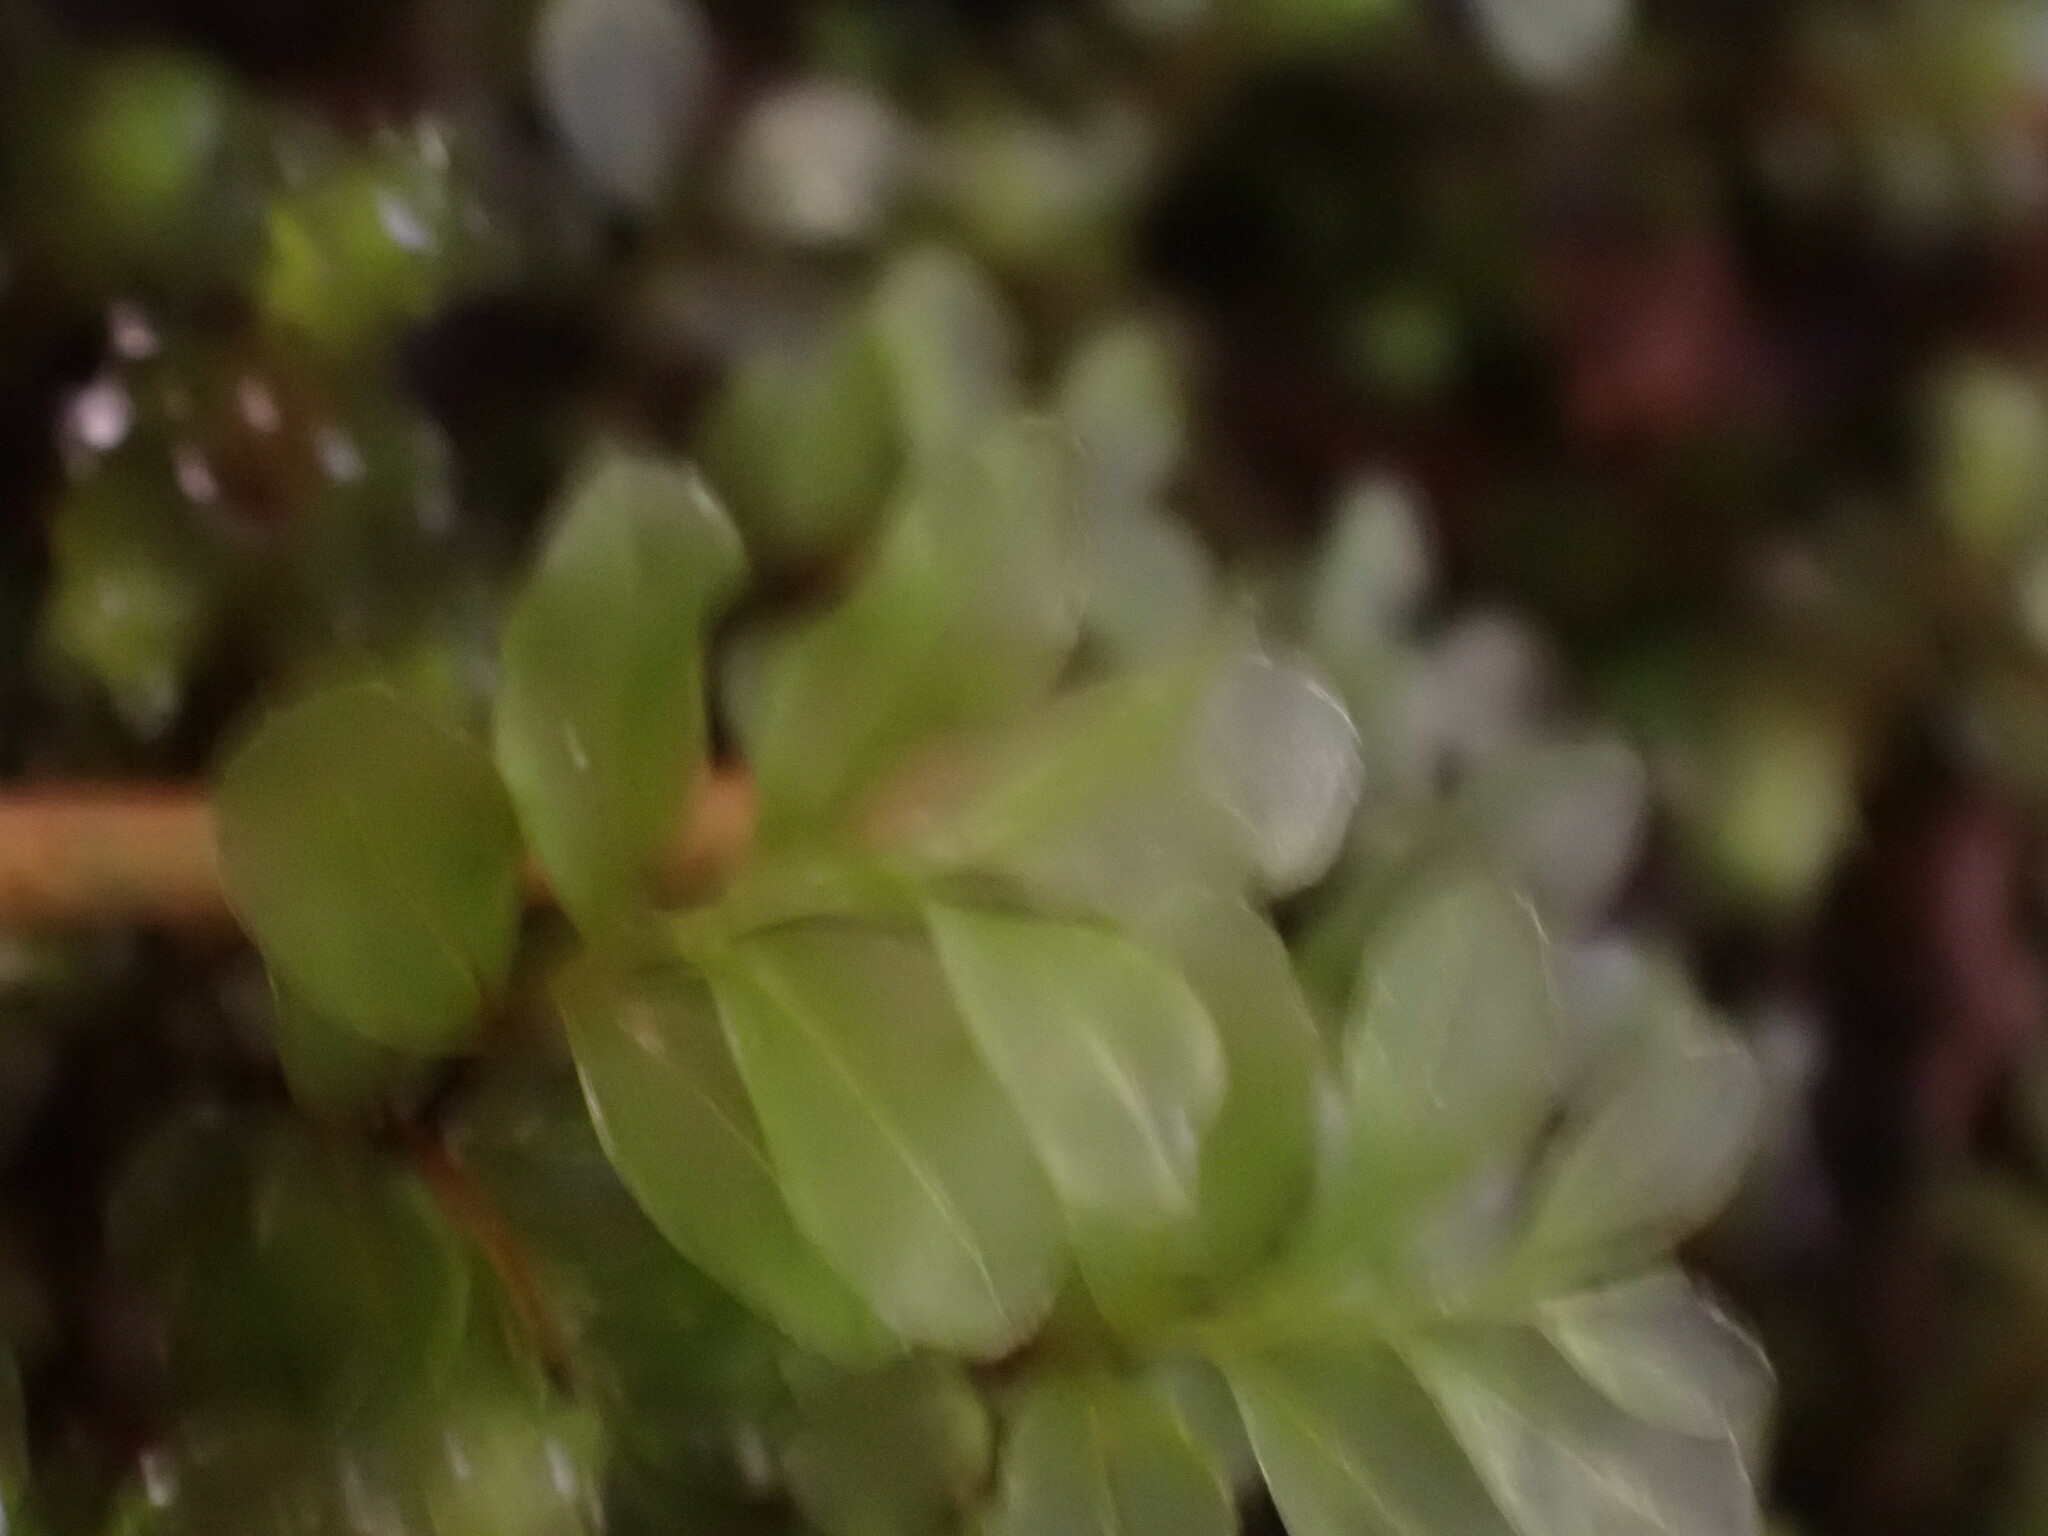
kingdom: Plantae
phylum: Bryophyta
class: Bryopsida
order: Bryales
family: Mniaceae
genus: Rhizomnium
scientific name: Rhizomnium glabrescens
